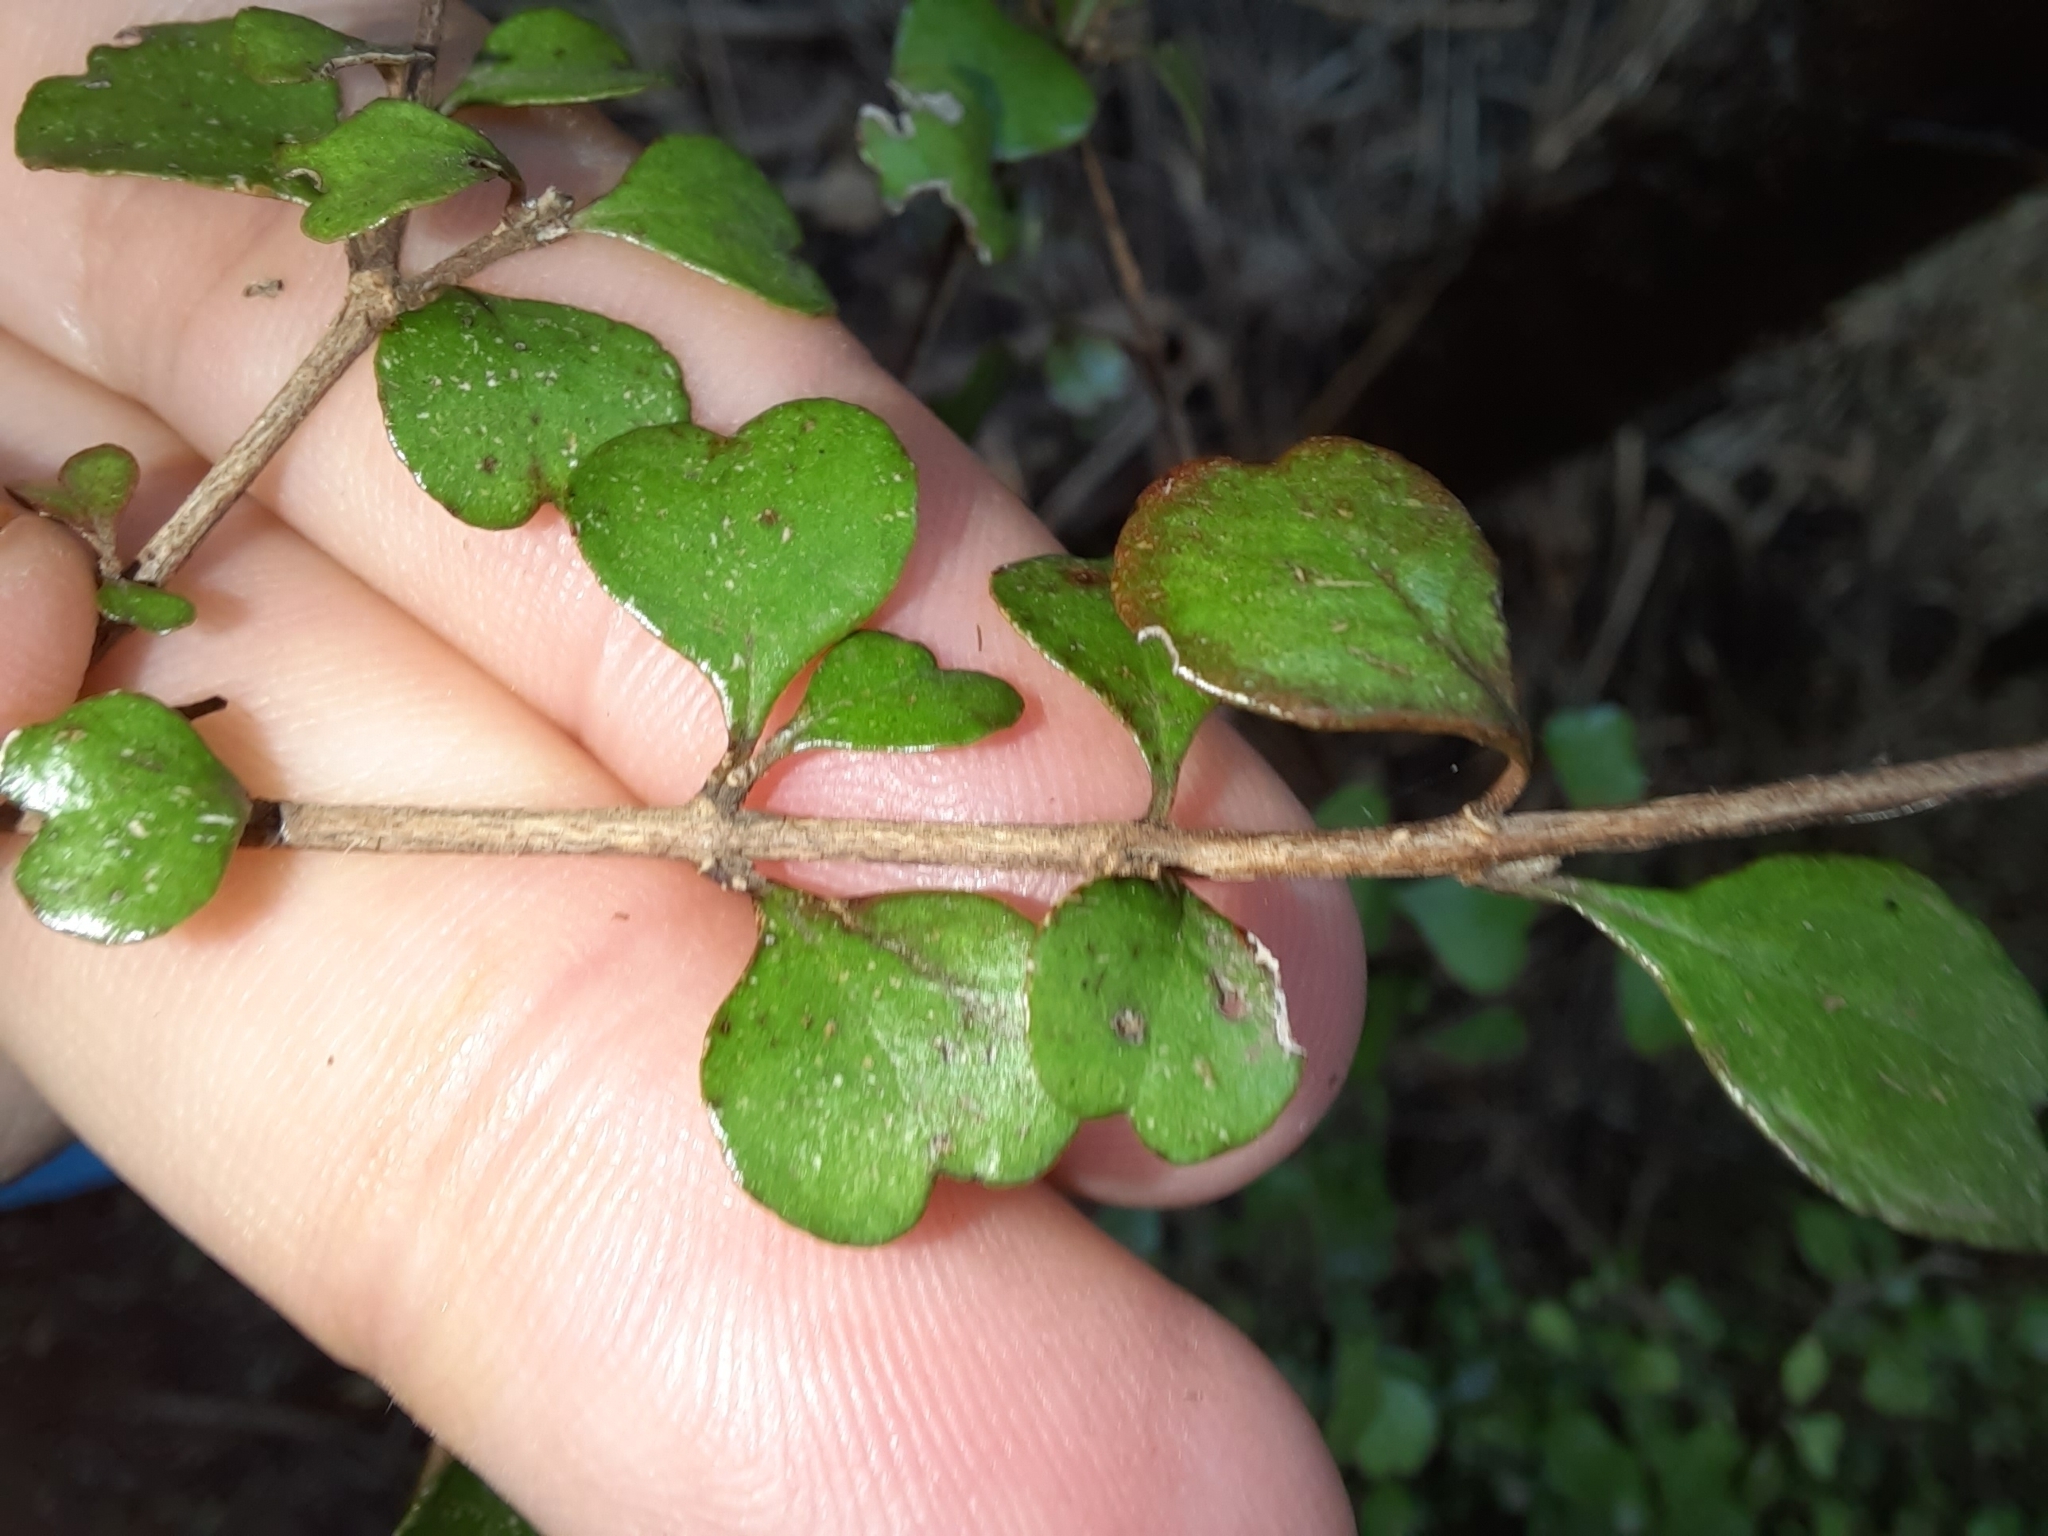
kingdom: Plantae
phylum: Tracheophyta
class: Magnoliopsida
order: Myrtales
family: Myrtaceae
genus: Lophomyrtus
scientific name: Lophomyrtus obcordata
